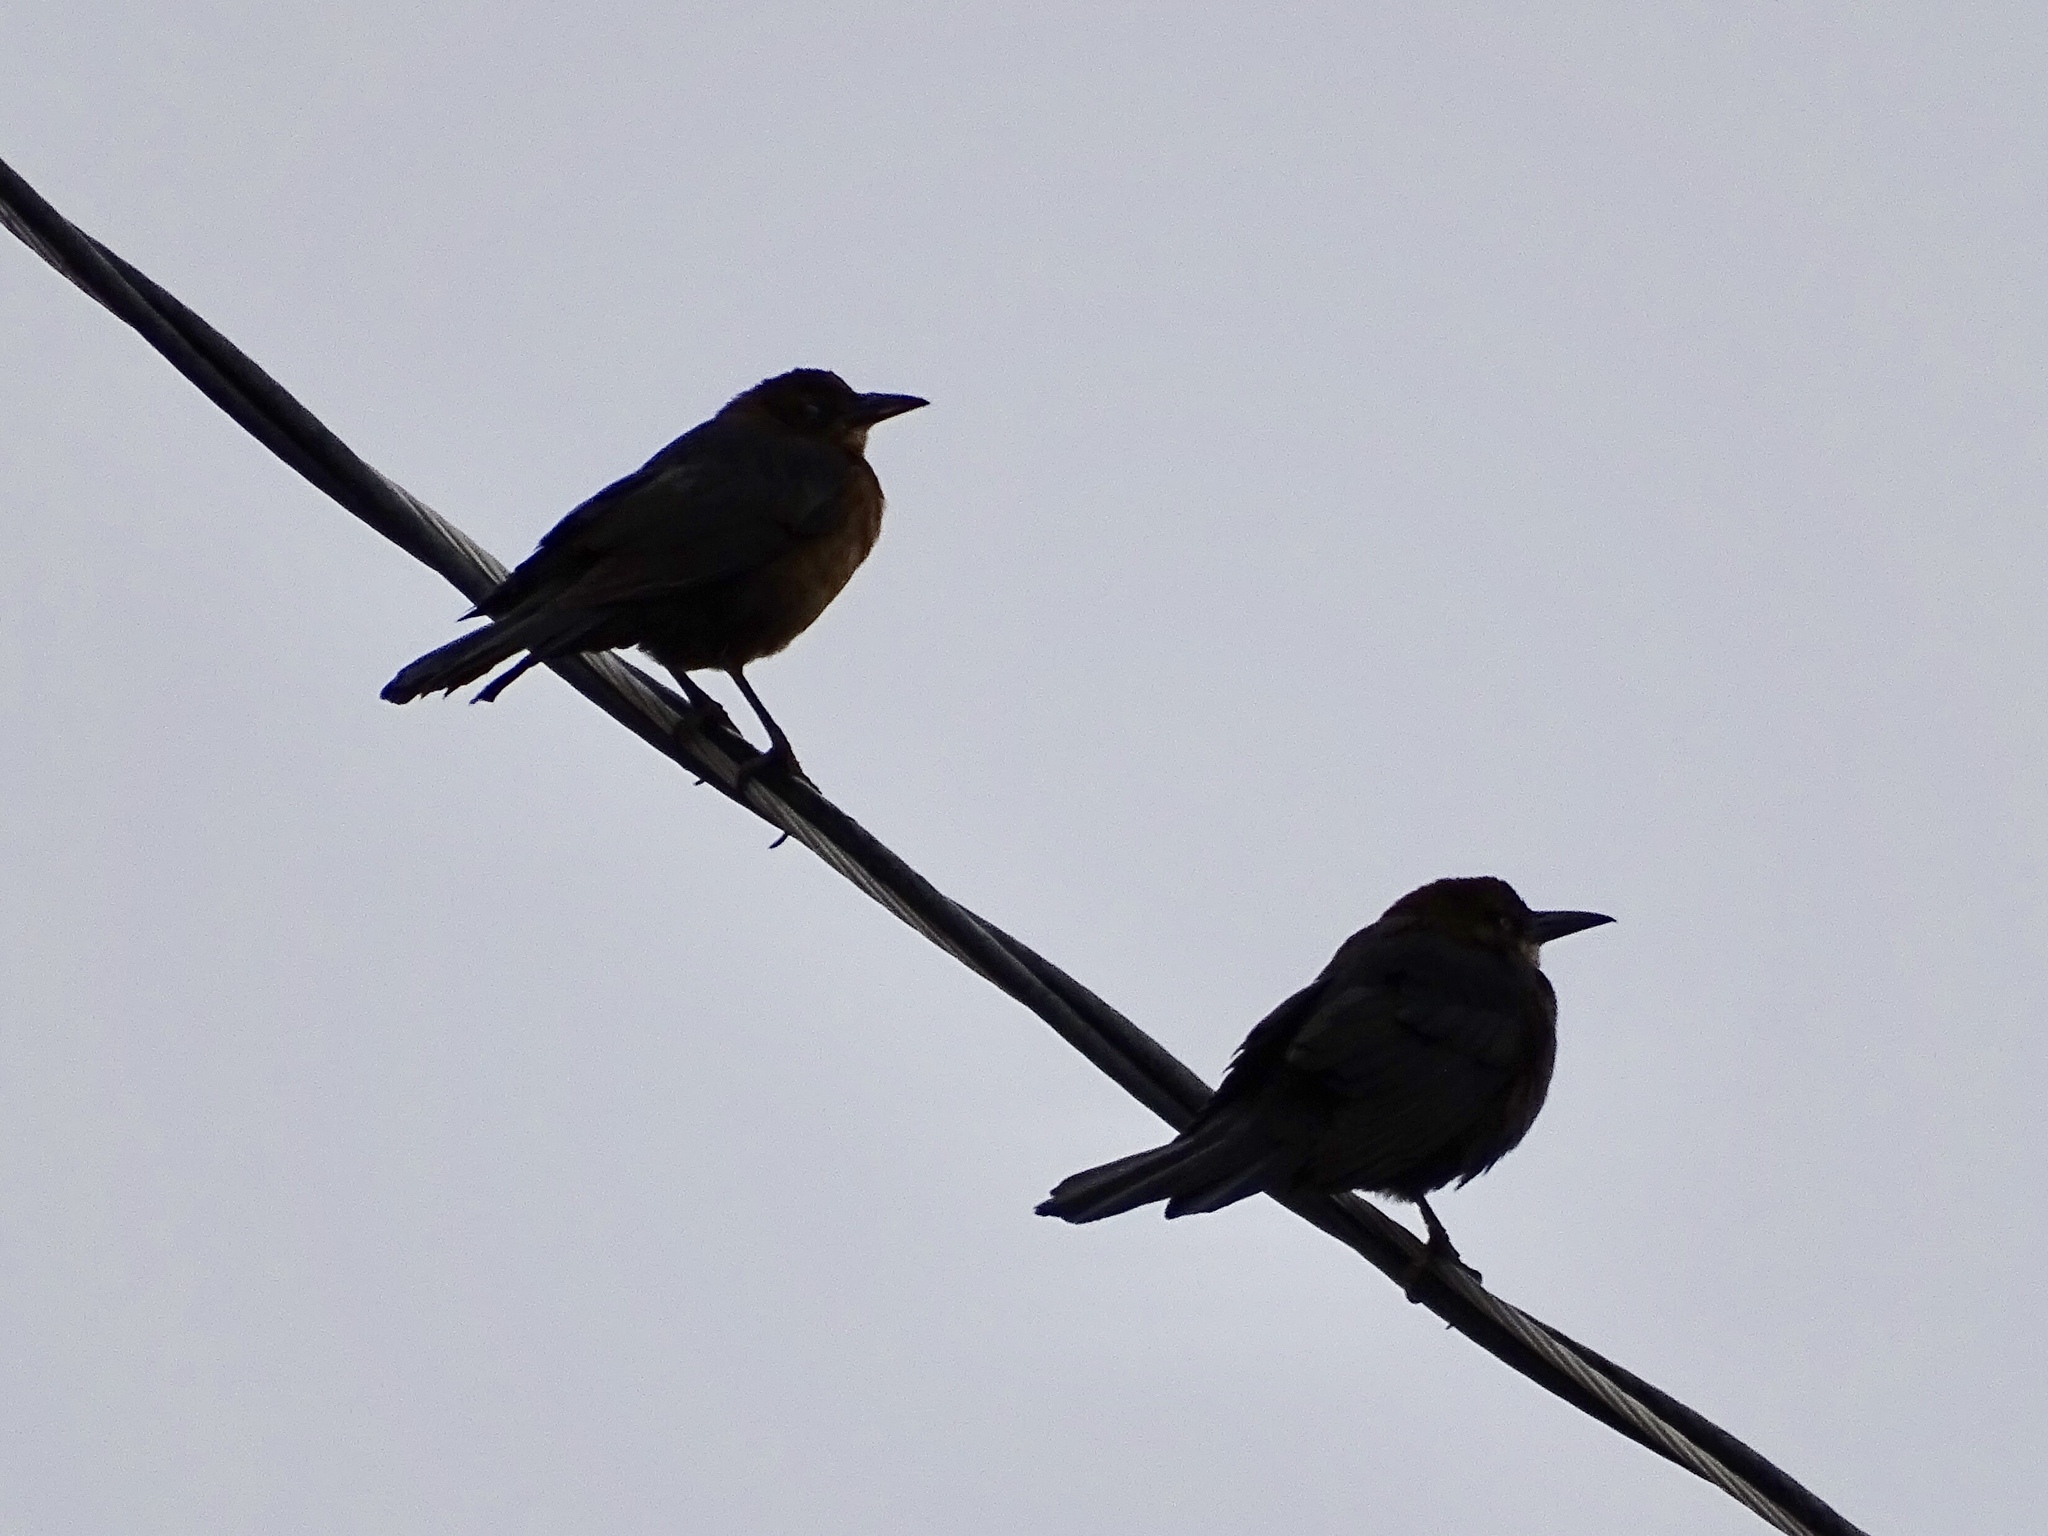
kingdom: Animalia
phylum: Chordata
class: Aves
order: Passeriformes
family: Icteridae
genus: Quiscalus
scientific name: Quiscalus mexicanus
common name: Great-tailed grackle
